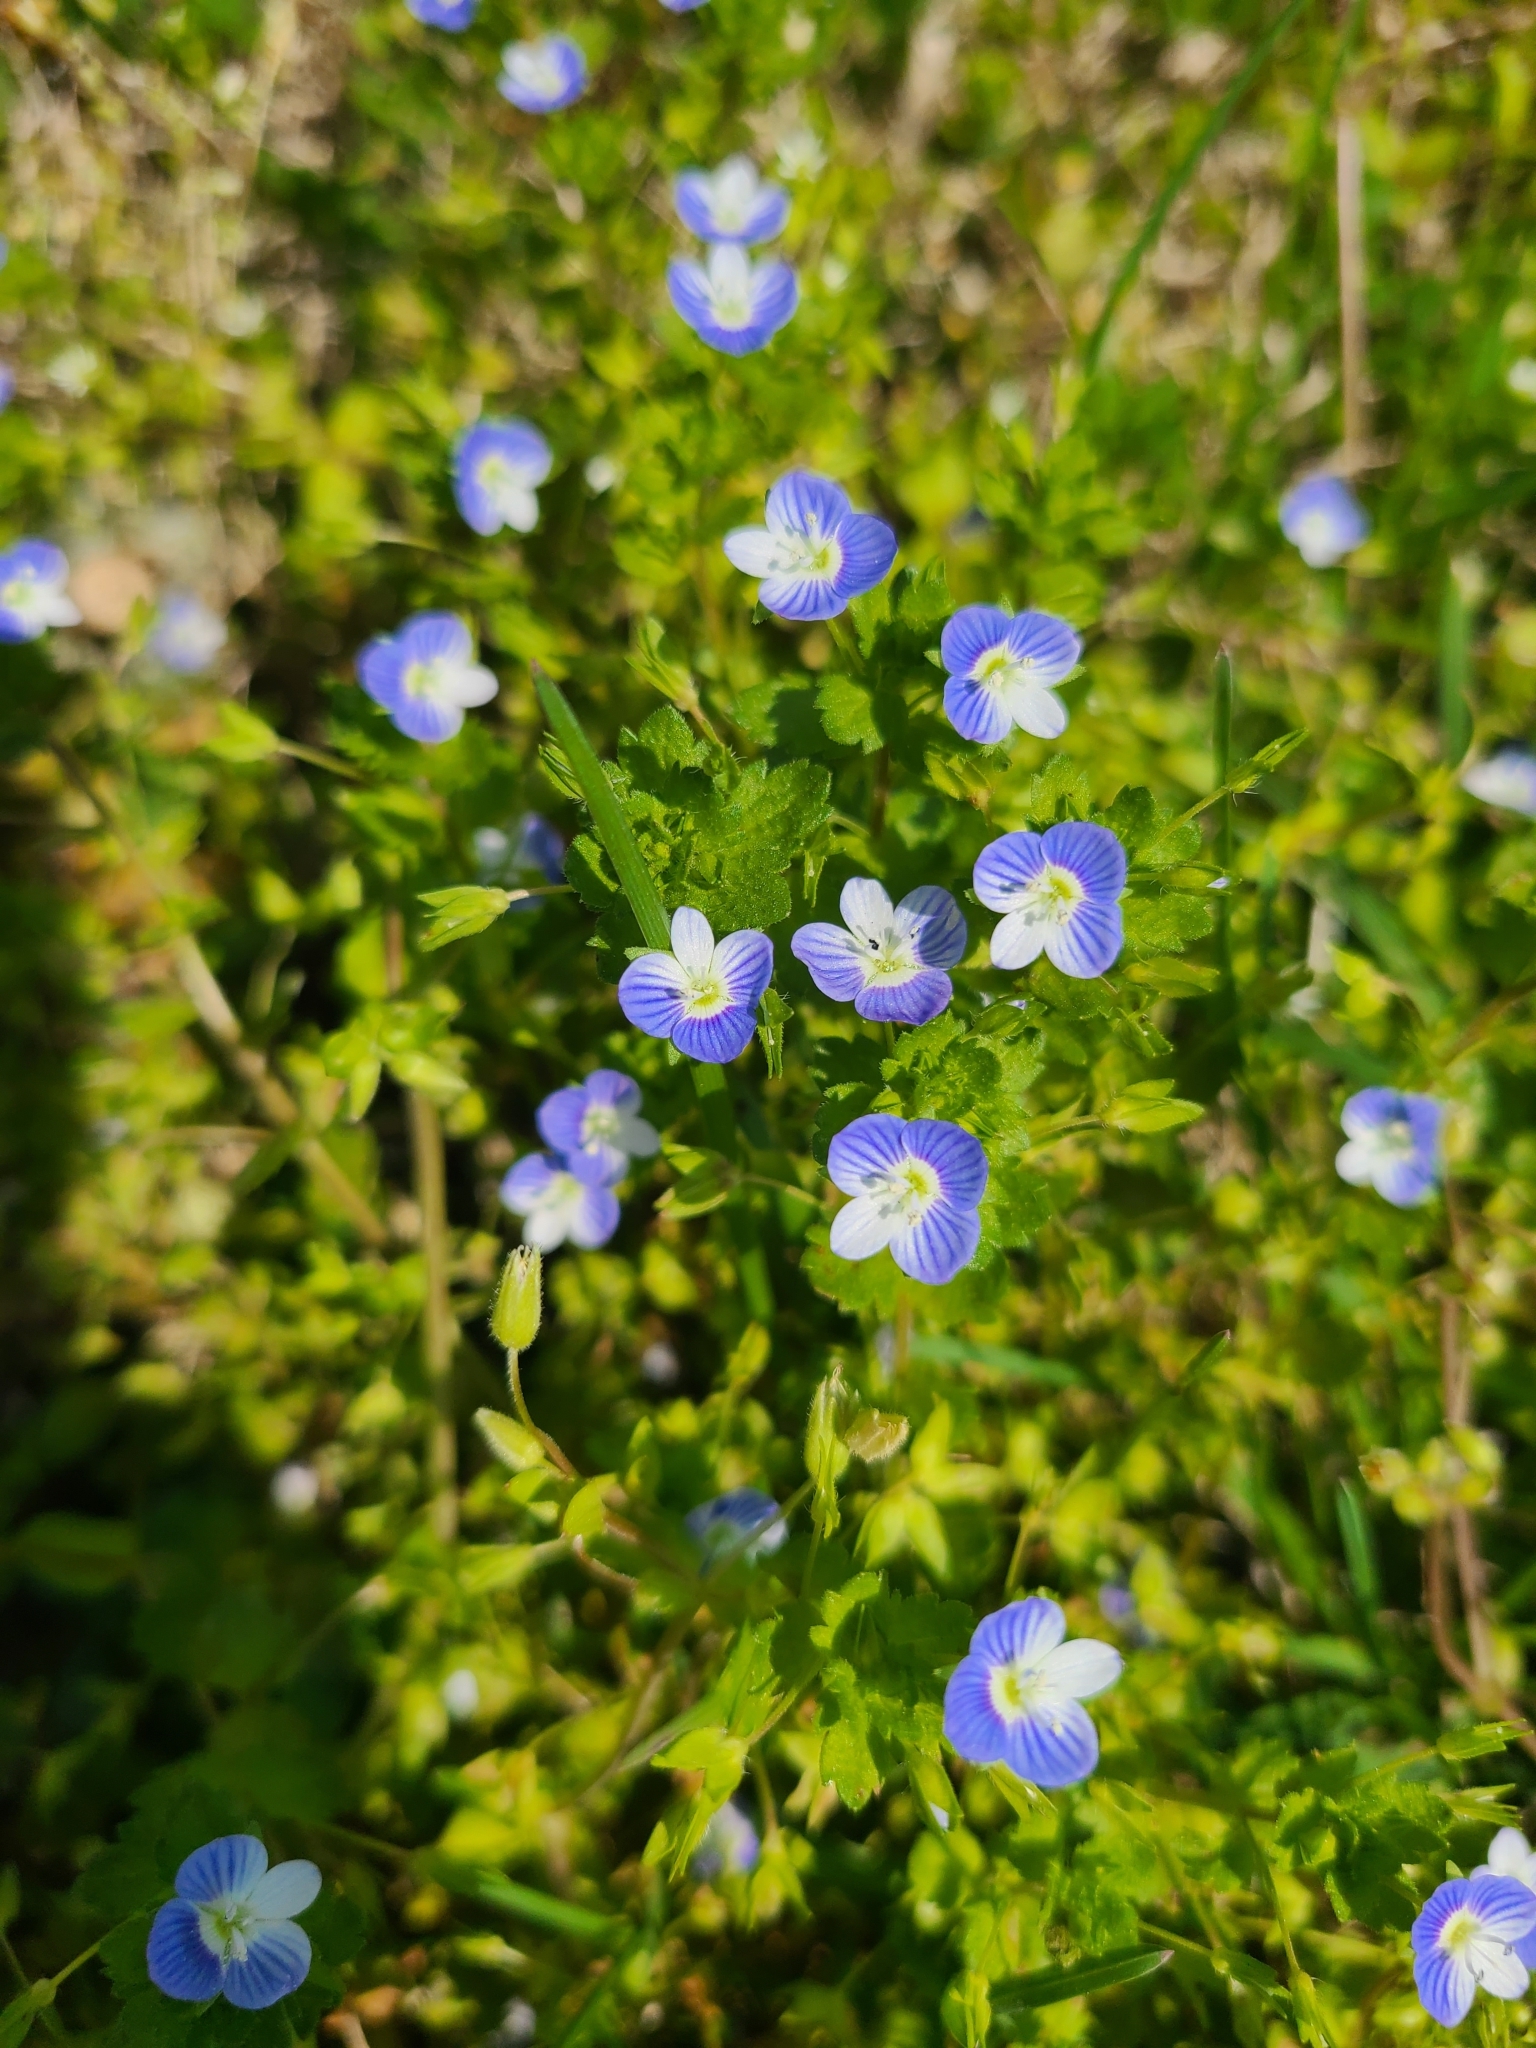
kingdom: Plantae
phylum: Tracheophyta
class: Magnoliopsida
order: Lamiales
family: Plantaginaceae
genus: Veronica
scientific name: Veronica persica
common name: Common field-speedwell
